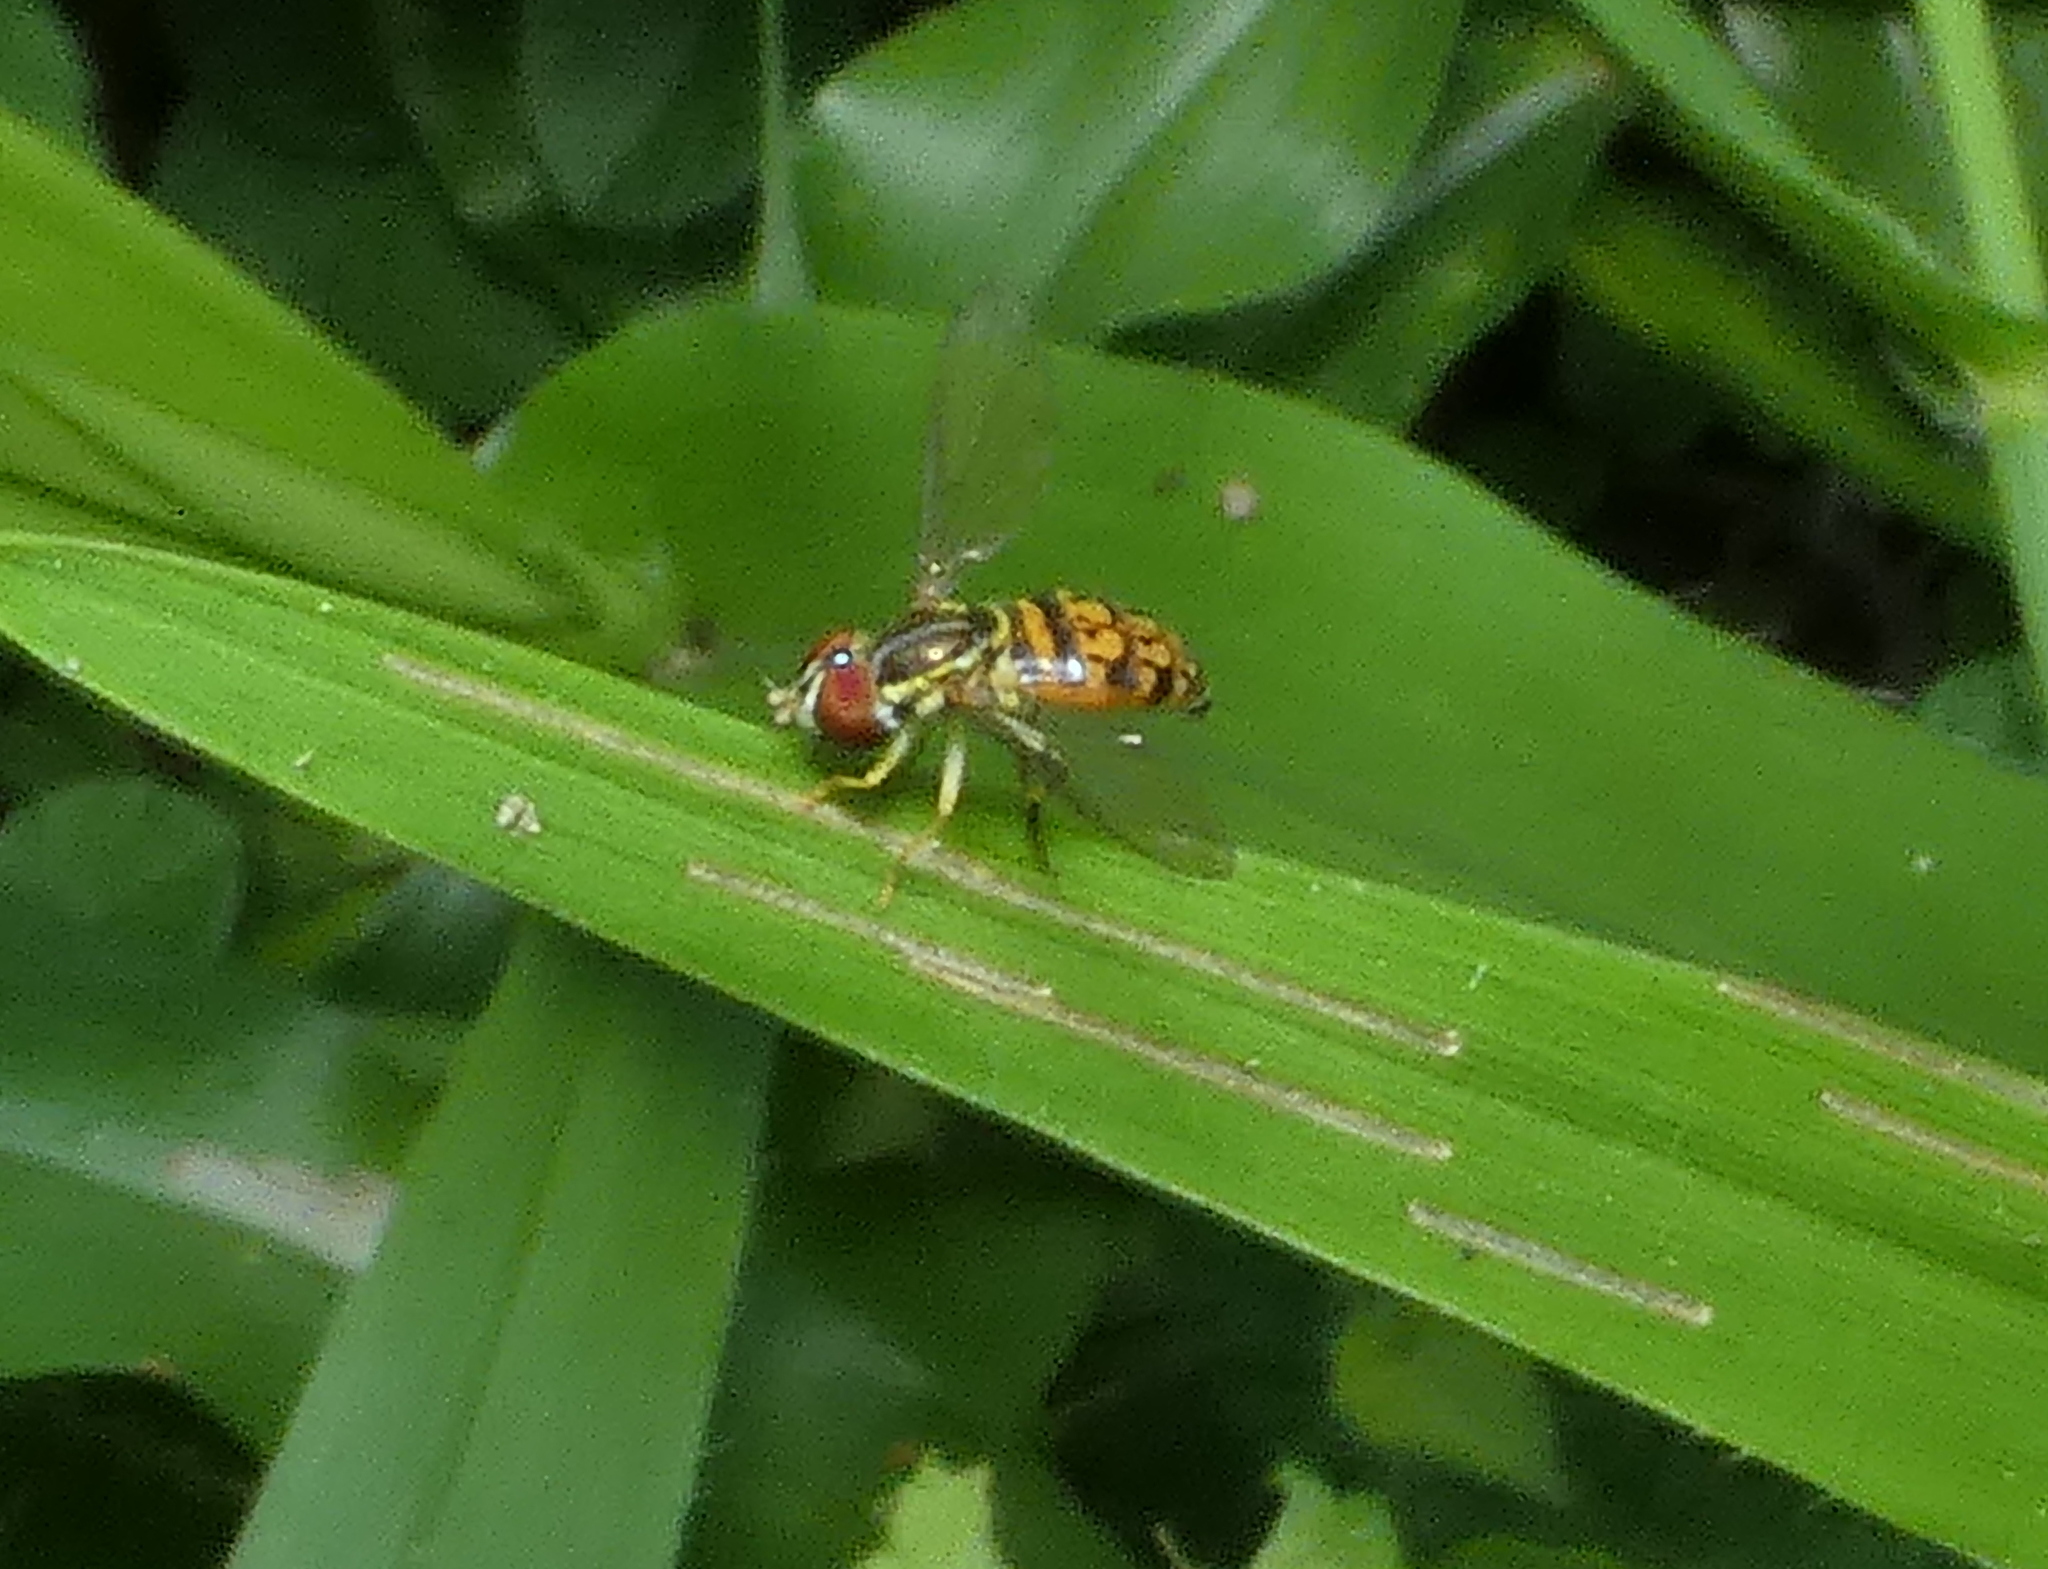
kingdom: Animalia
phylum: Arthropoda
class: Insecta
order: Diptera
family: Syrphidae
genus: Toxomerus
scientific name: Toxomerus pictus
